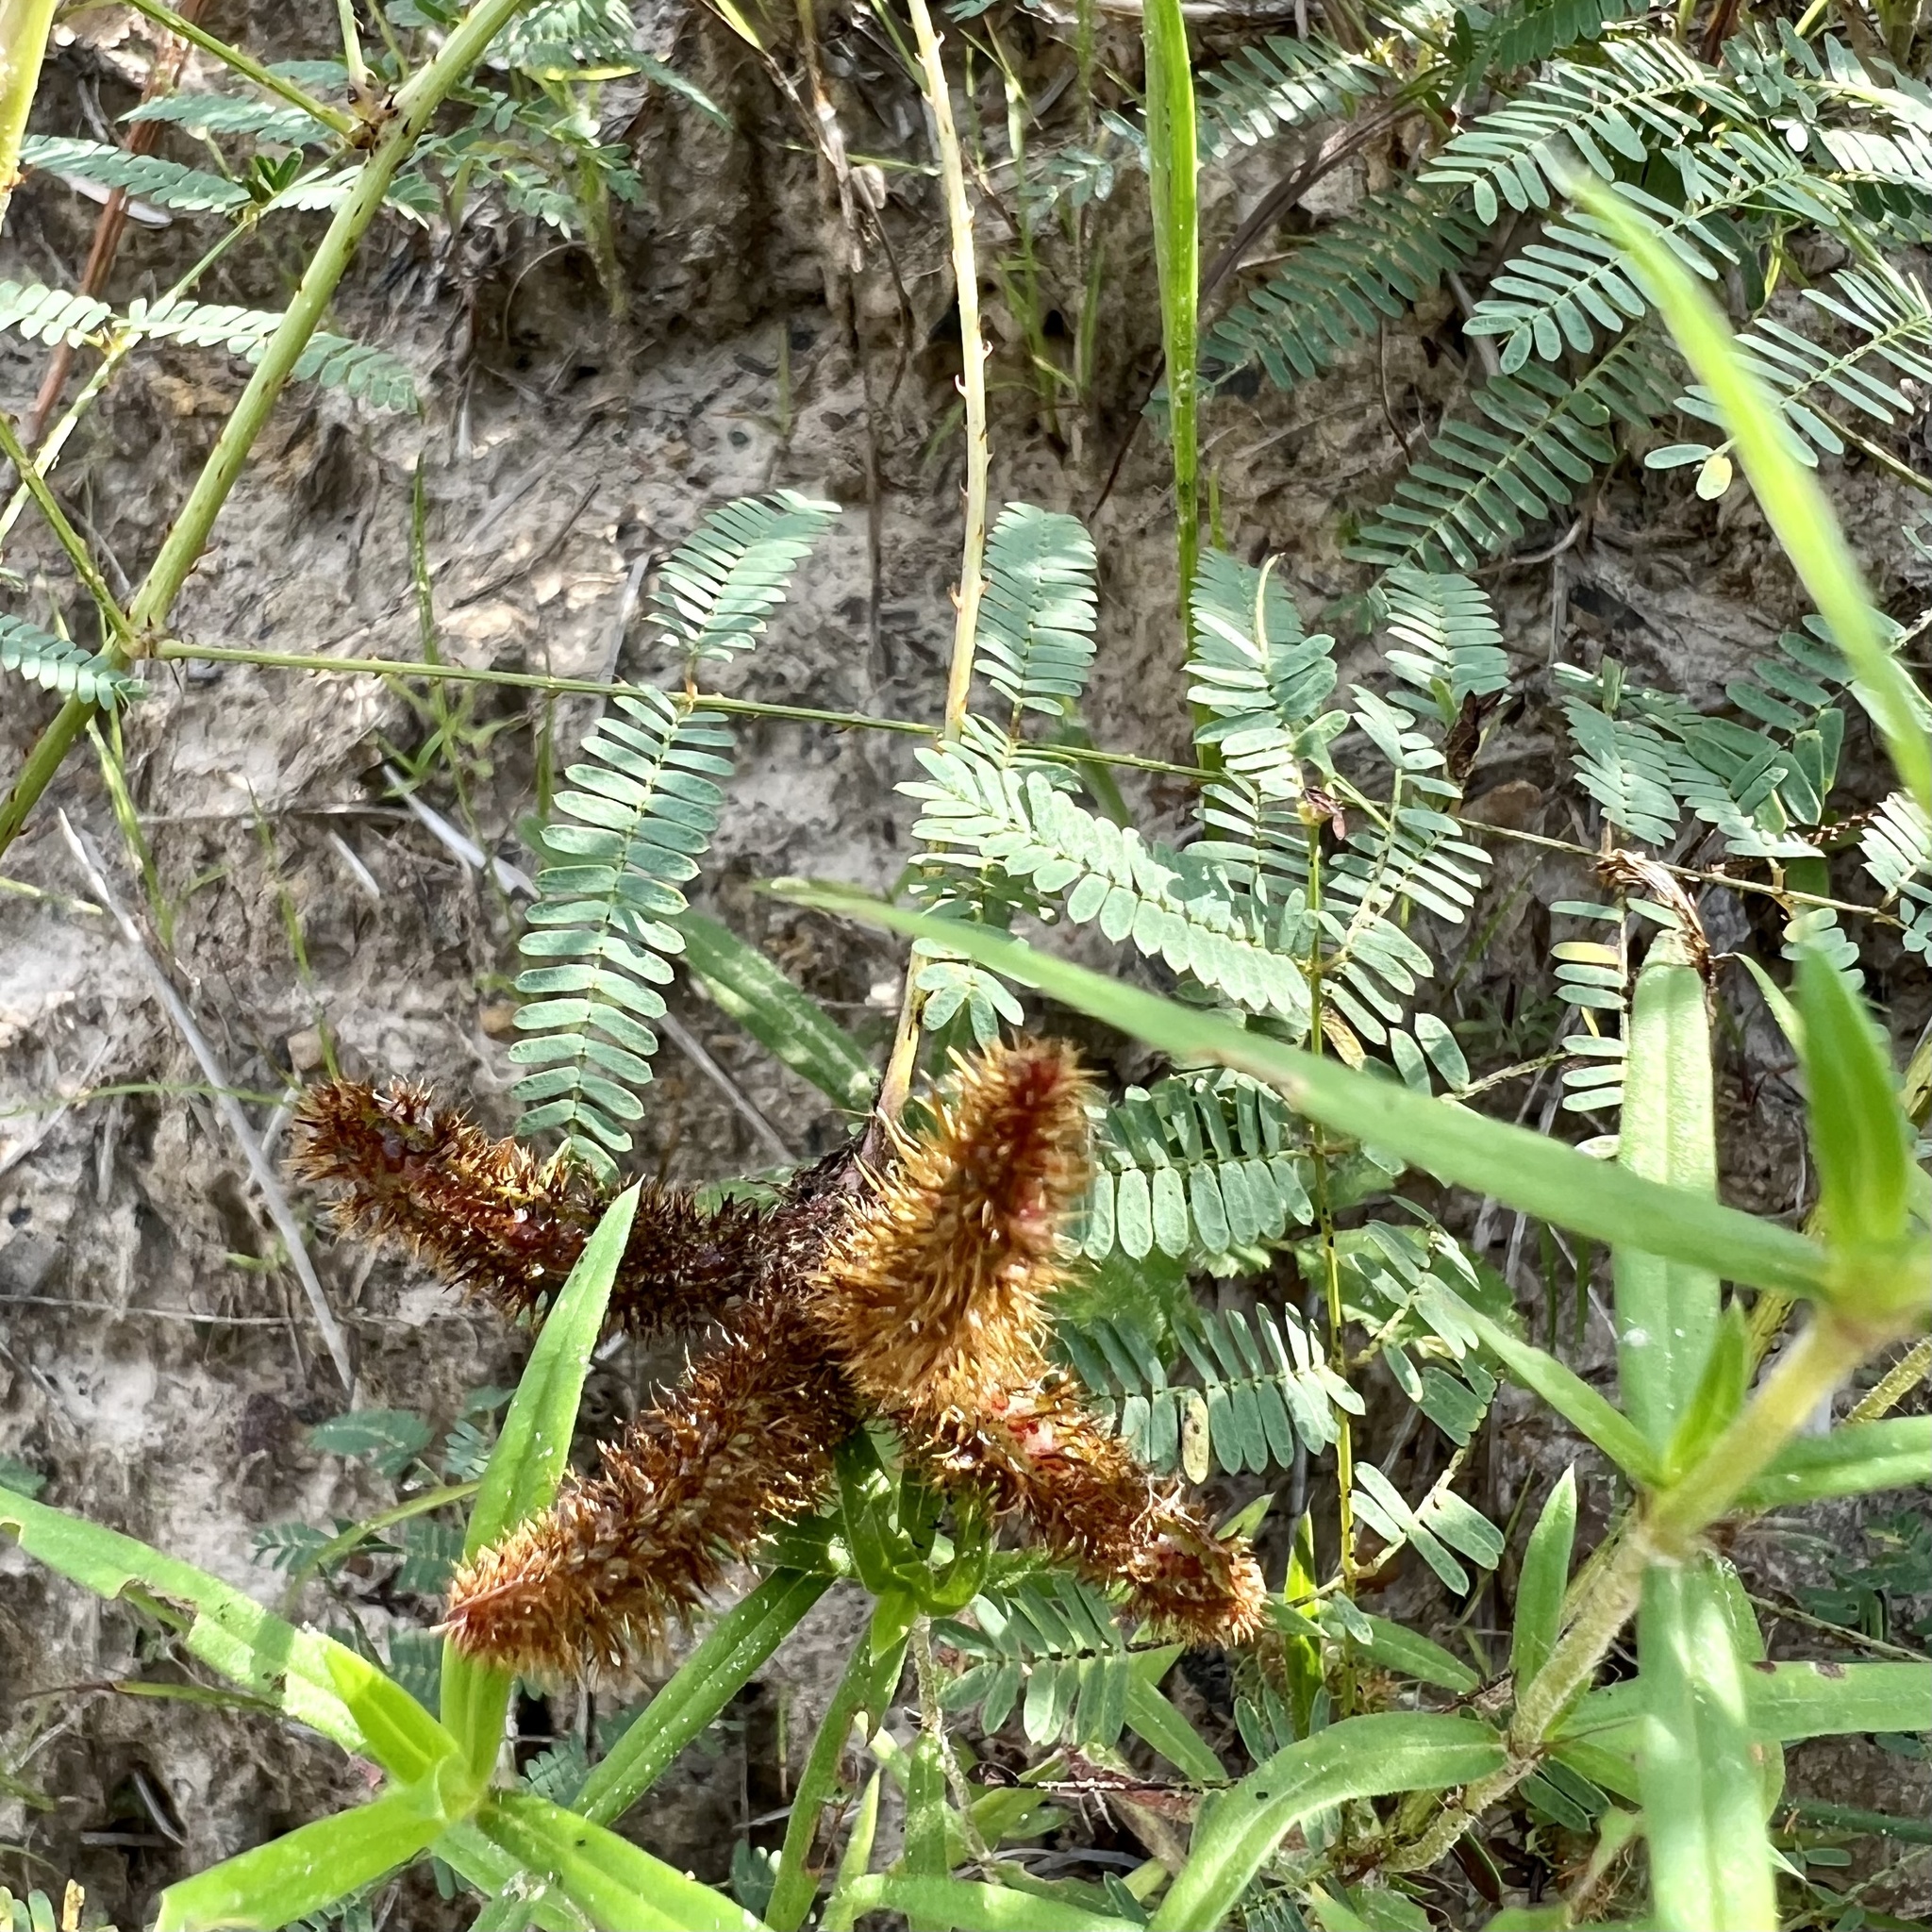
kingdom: Plantae
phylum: Tracheophyta
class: Magnoliopsida
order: Fabales
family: Fabaceae
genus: Mimosa
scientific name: Mimosa hystricina
